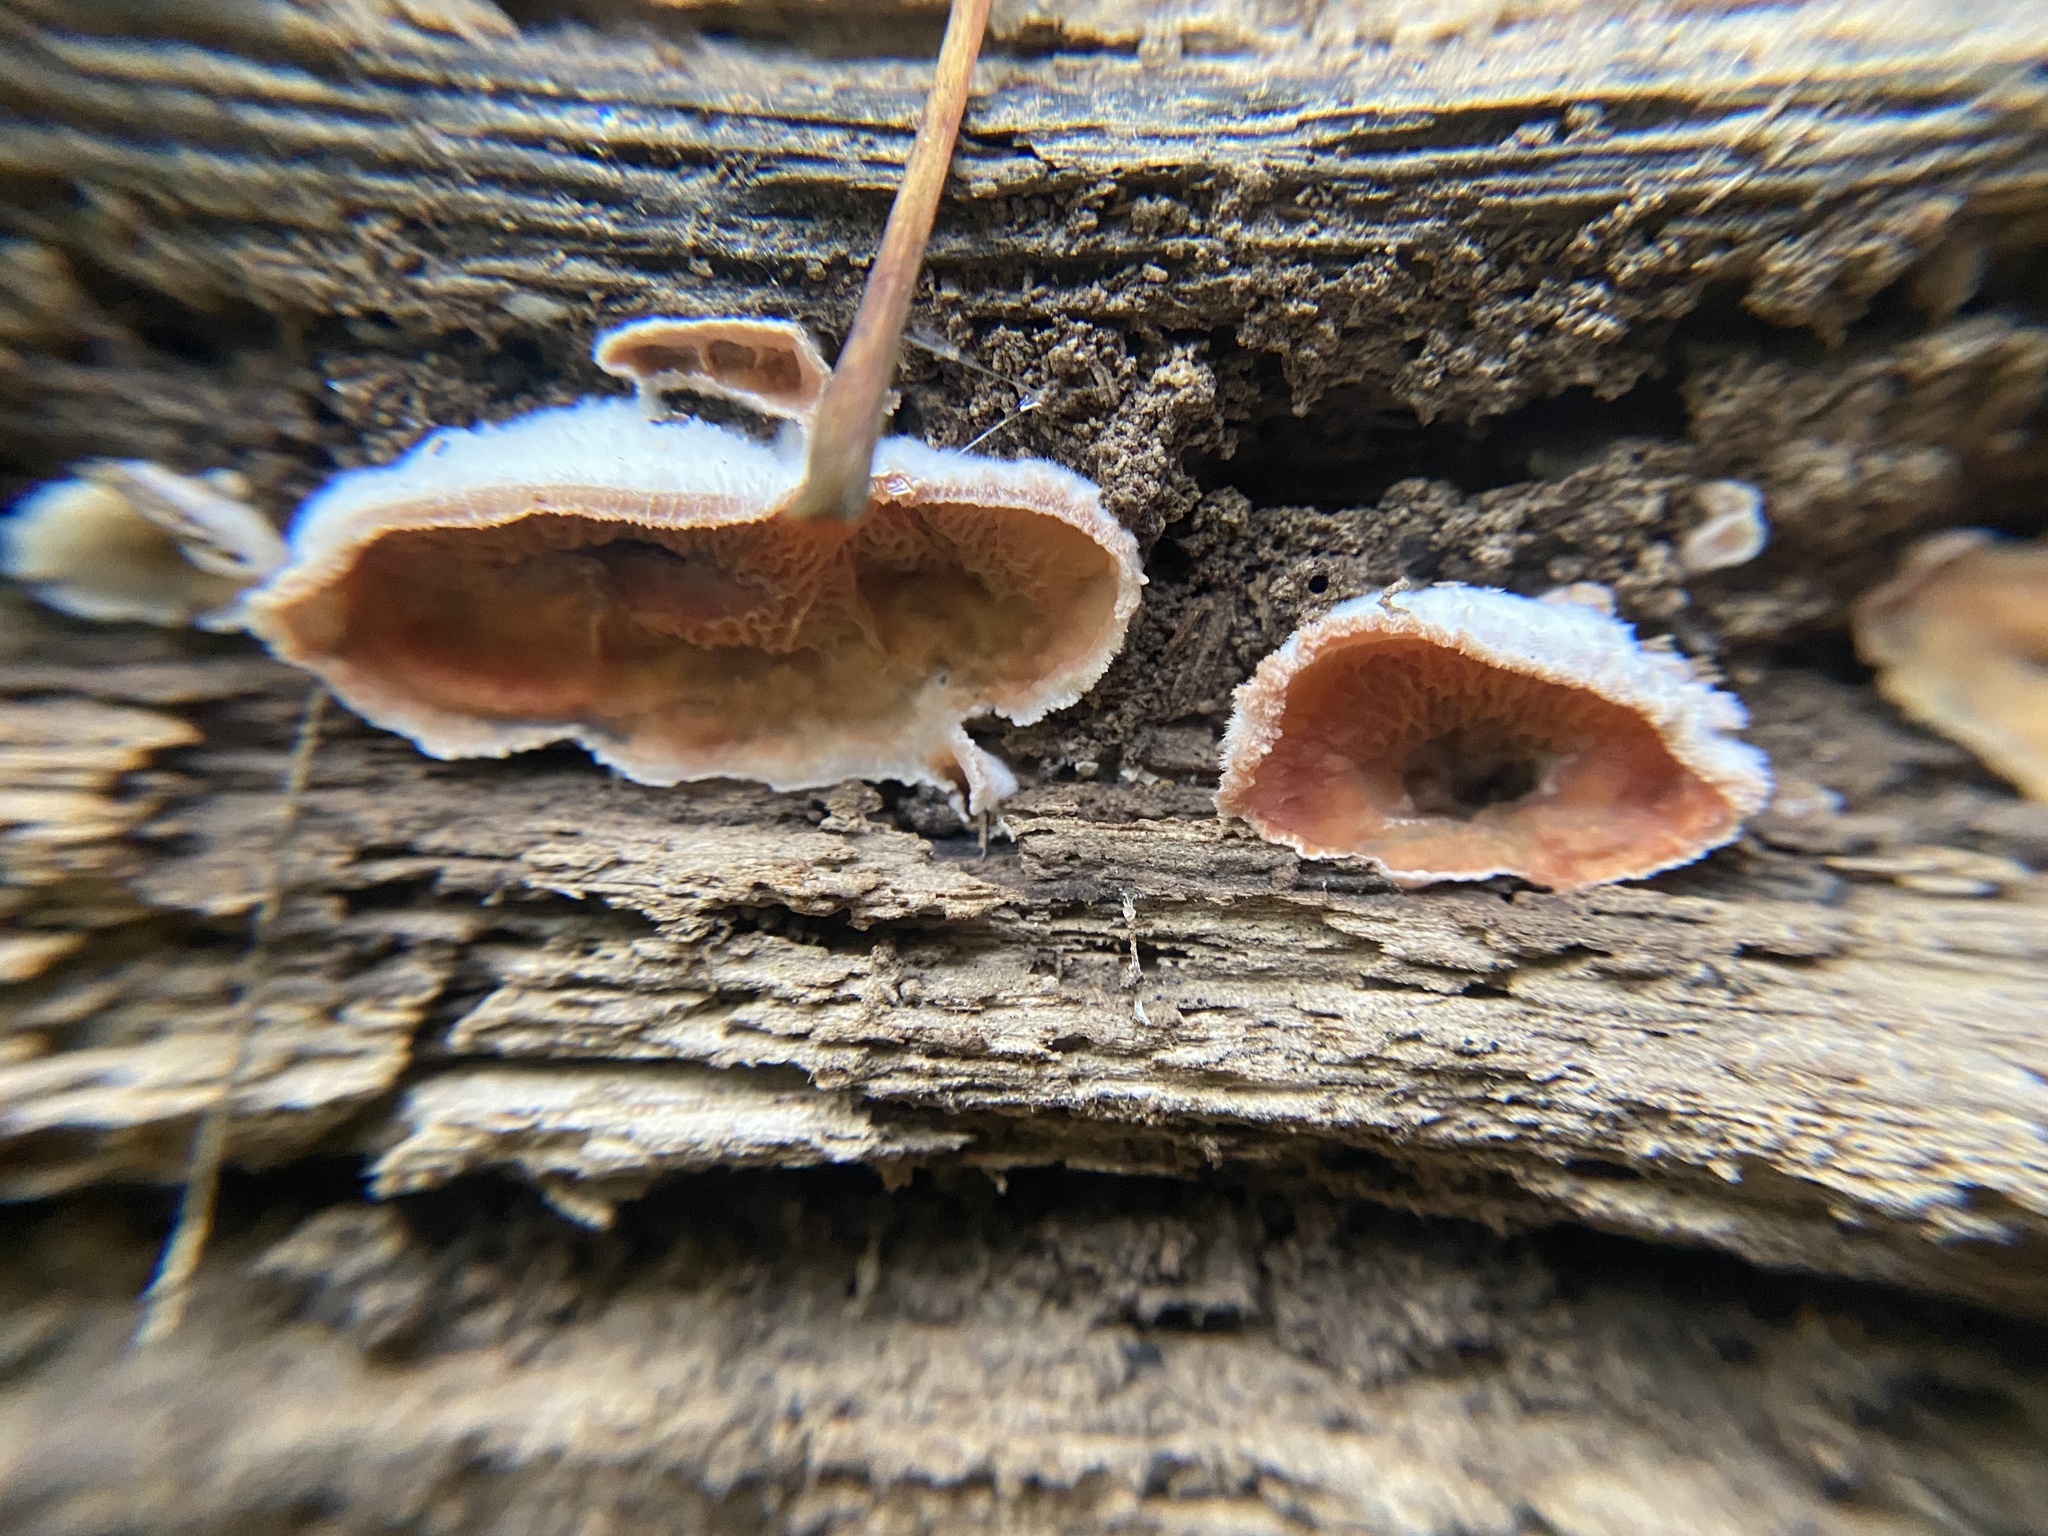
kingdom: Fungi
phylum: Basidiomycota
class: Agaricomycetes
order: Polyporales
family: Meruliaceae
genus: Phlebia
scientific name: Phlebia tremellosa
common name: Jelly rot
